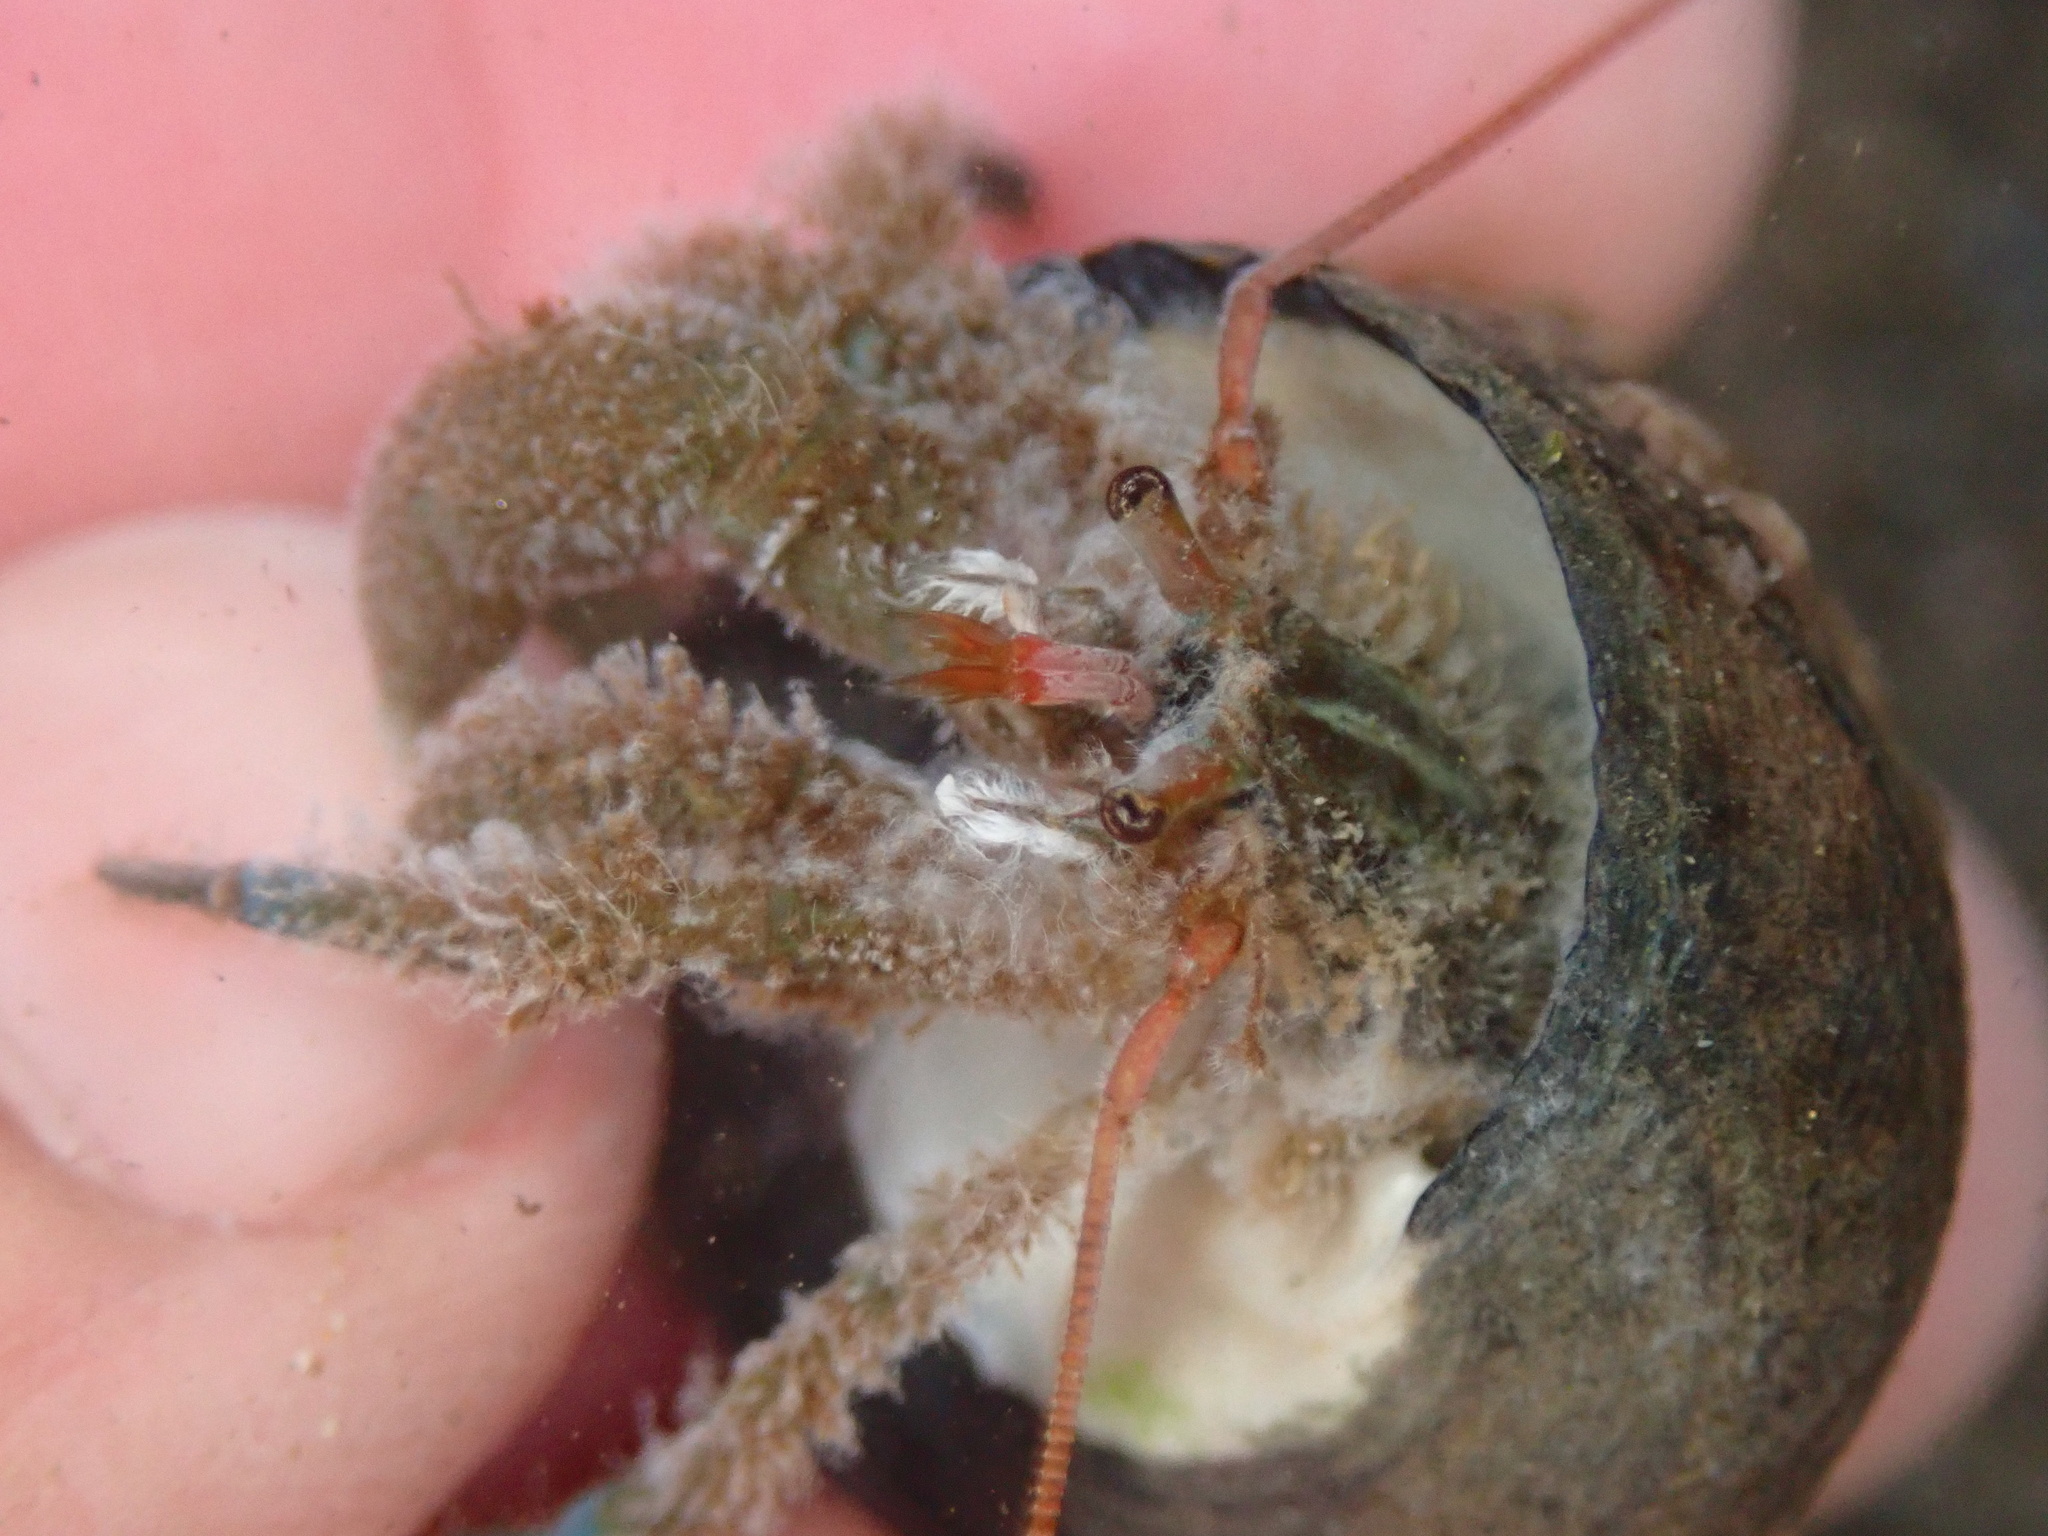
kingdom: Animalia
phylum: Arthropoda
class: Malacostraca
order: Decapoda
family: Paguridae
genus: Pagurus
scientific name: Pagurus samuelis
